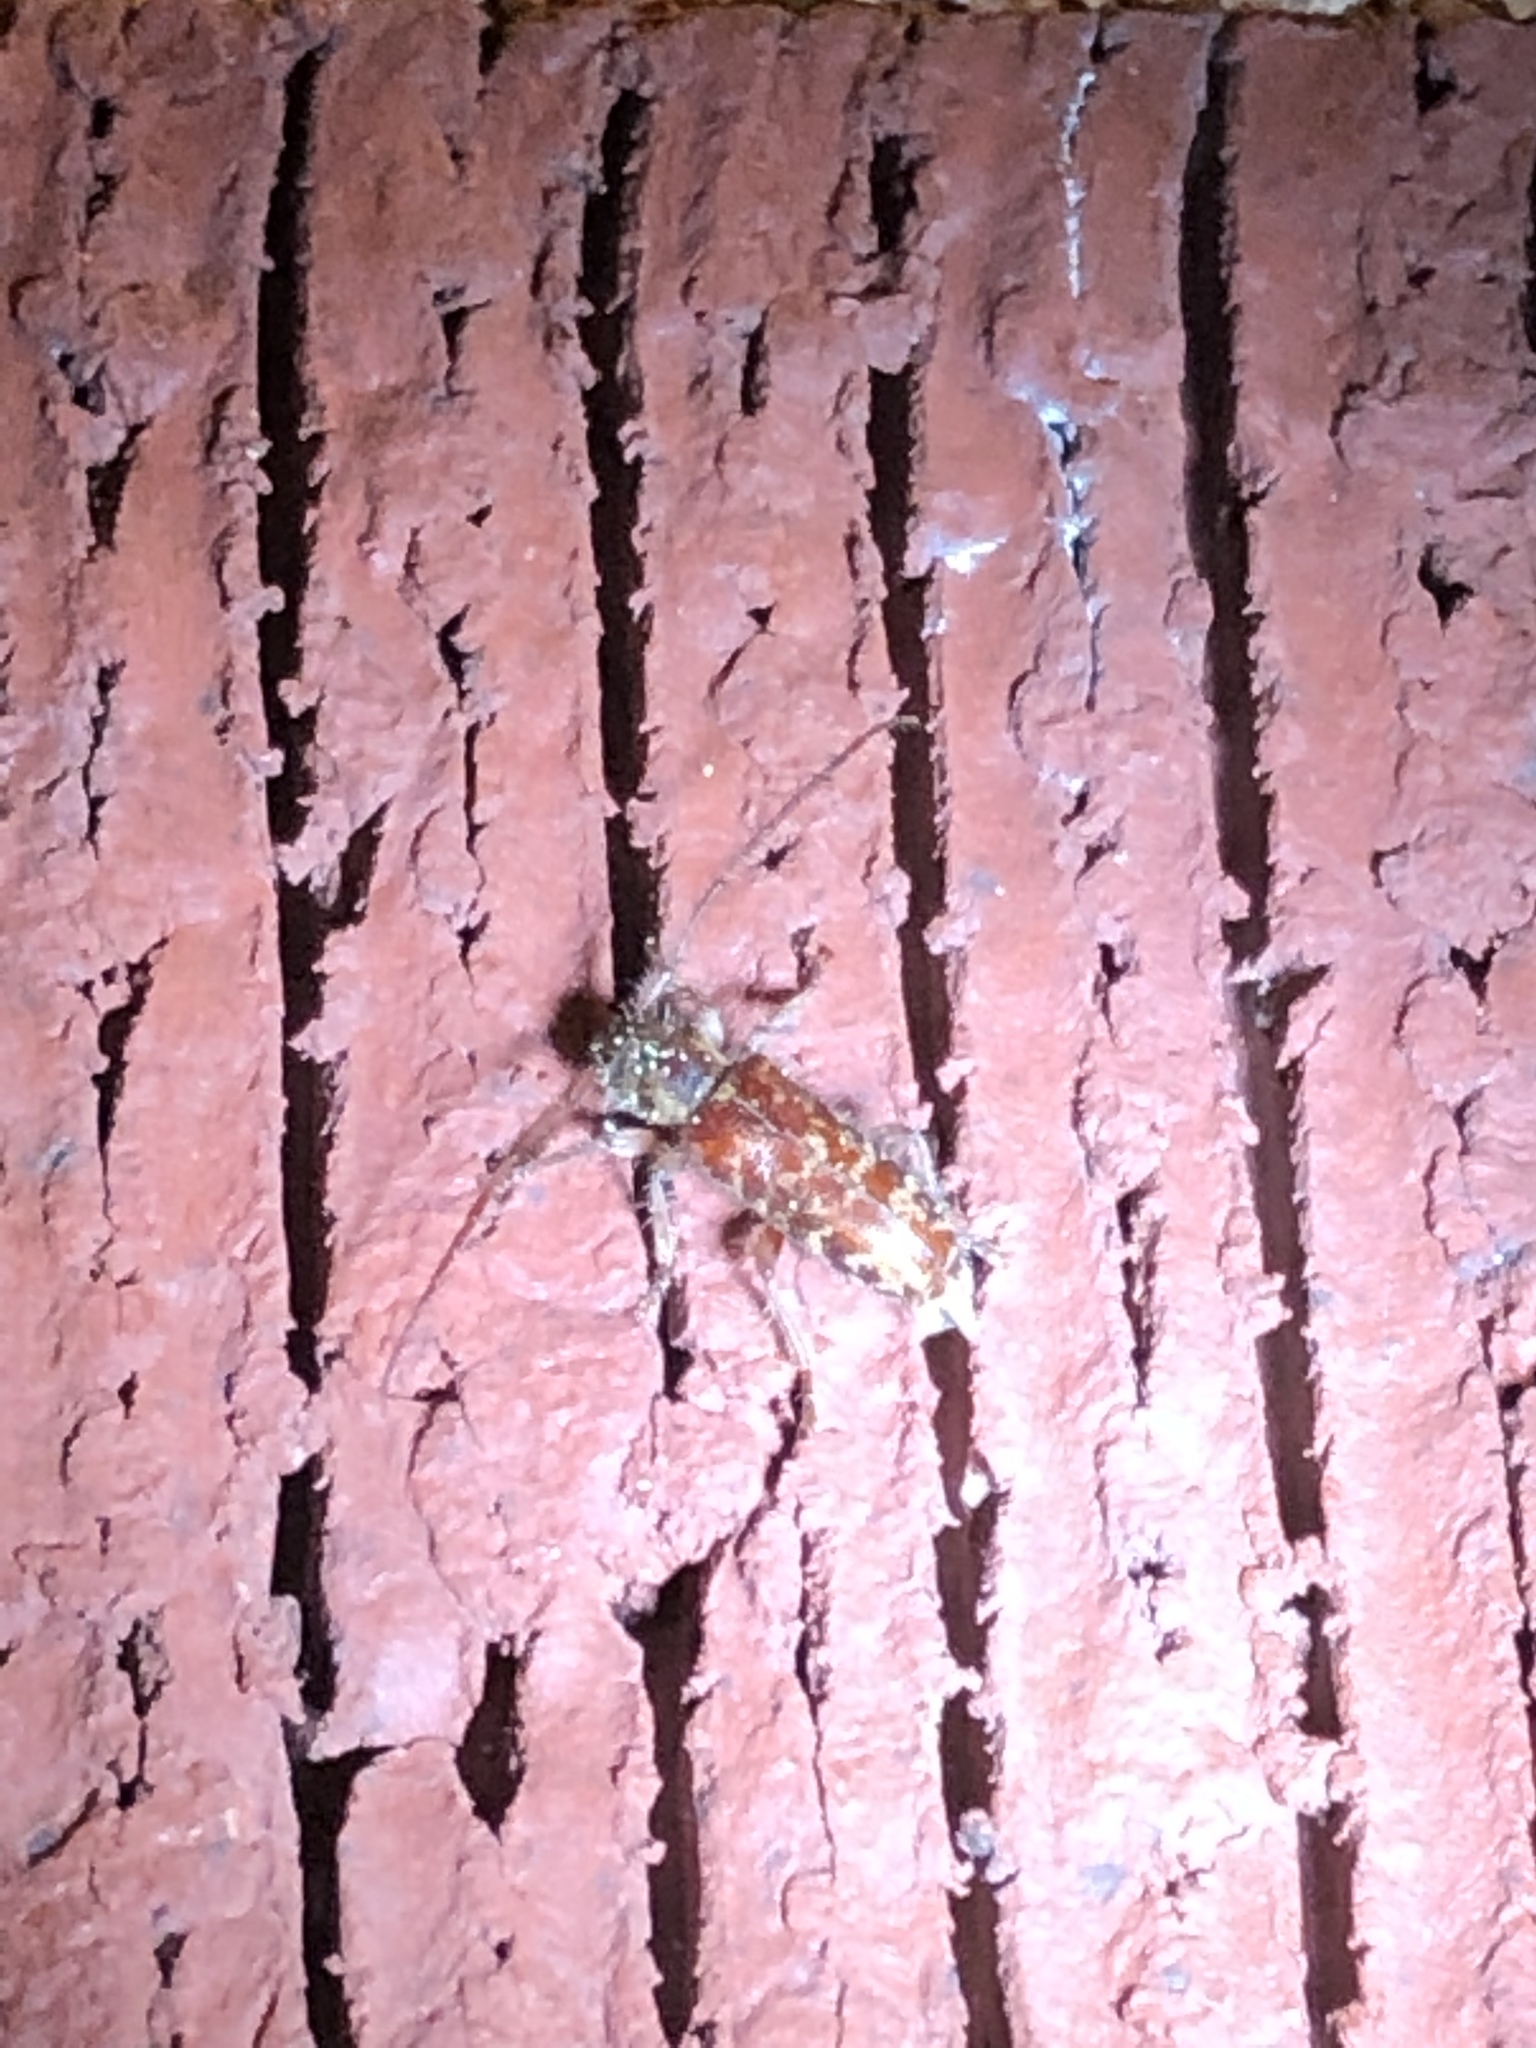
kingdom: Animalia
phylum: Arthropoda
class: Insecta
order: Coleoptera
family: Cerambycidae
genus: Eupogonius
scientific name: Eupogonius tomentosus
